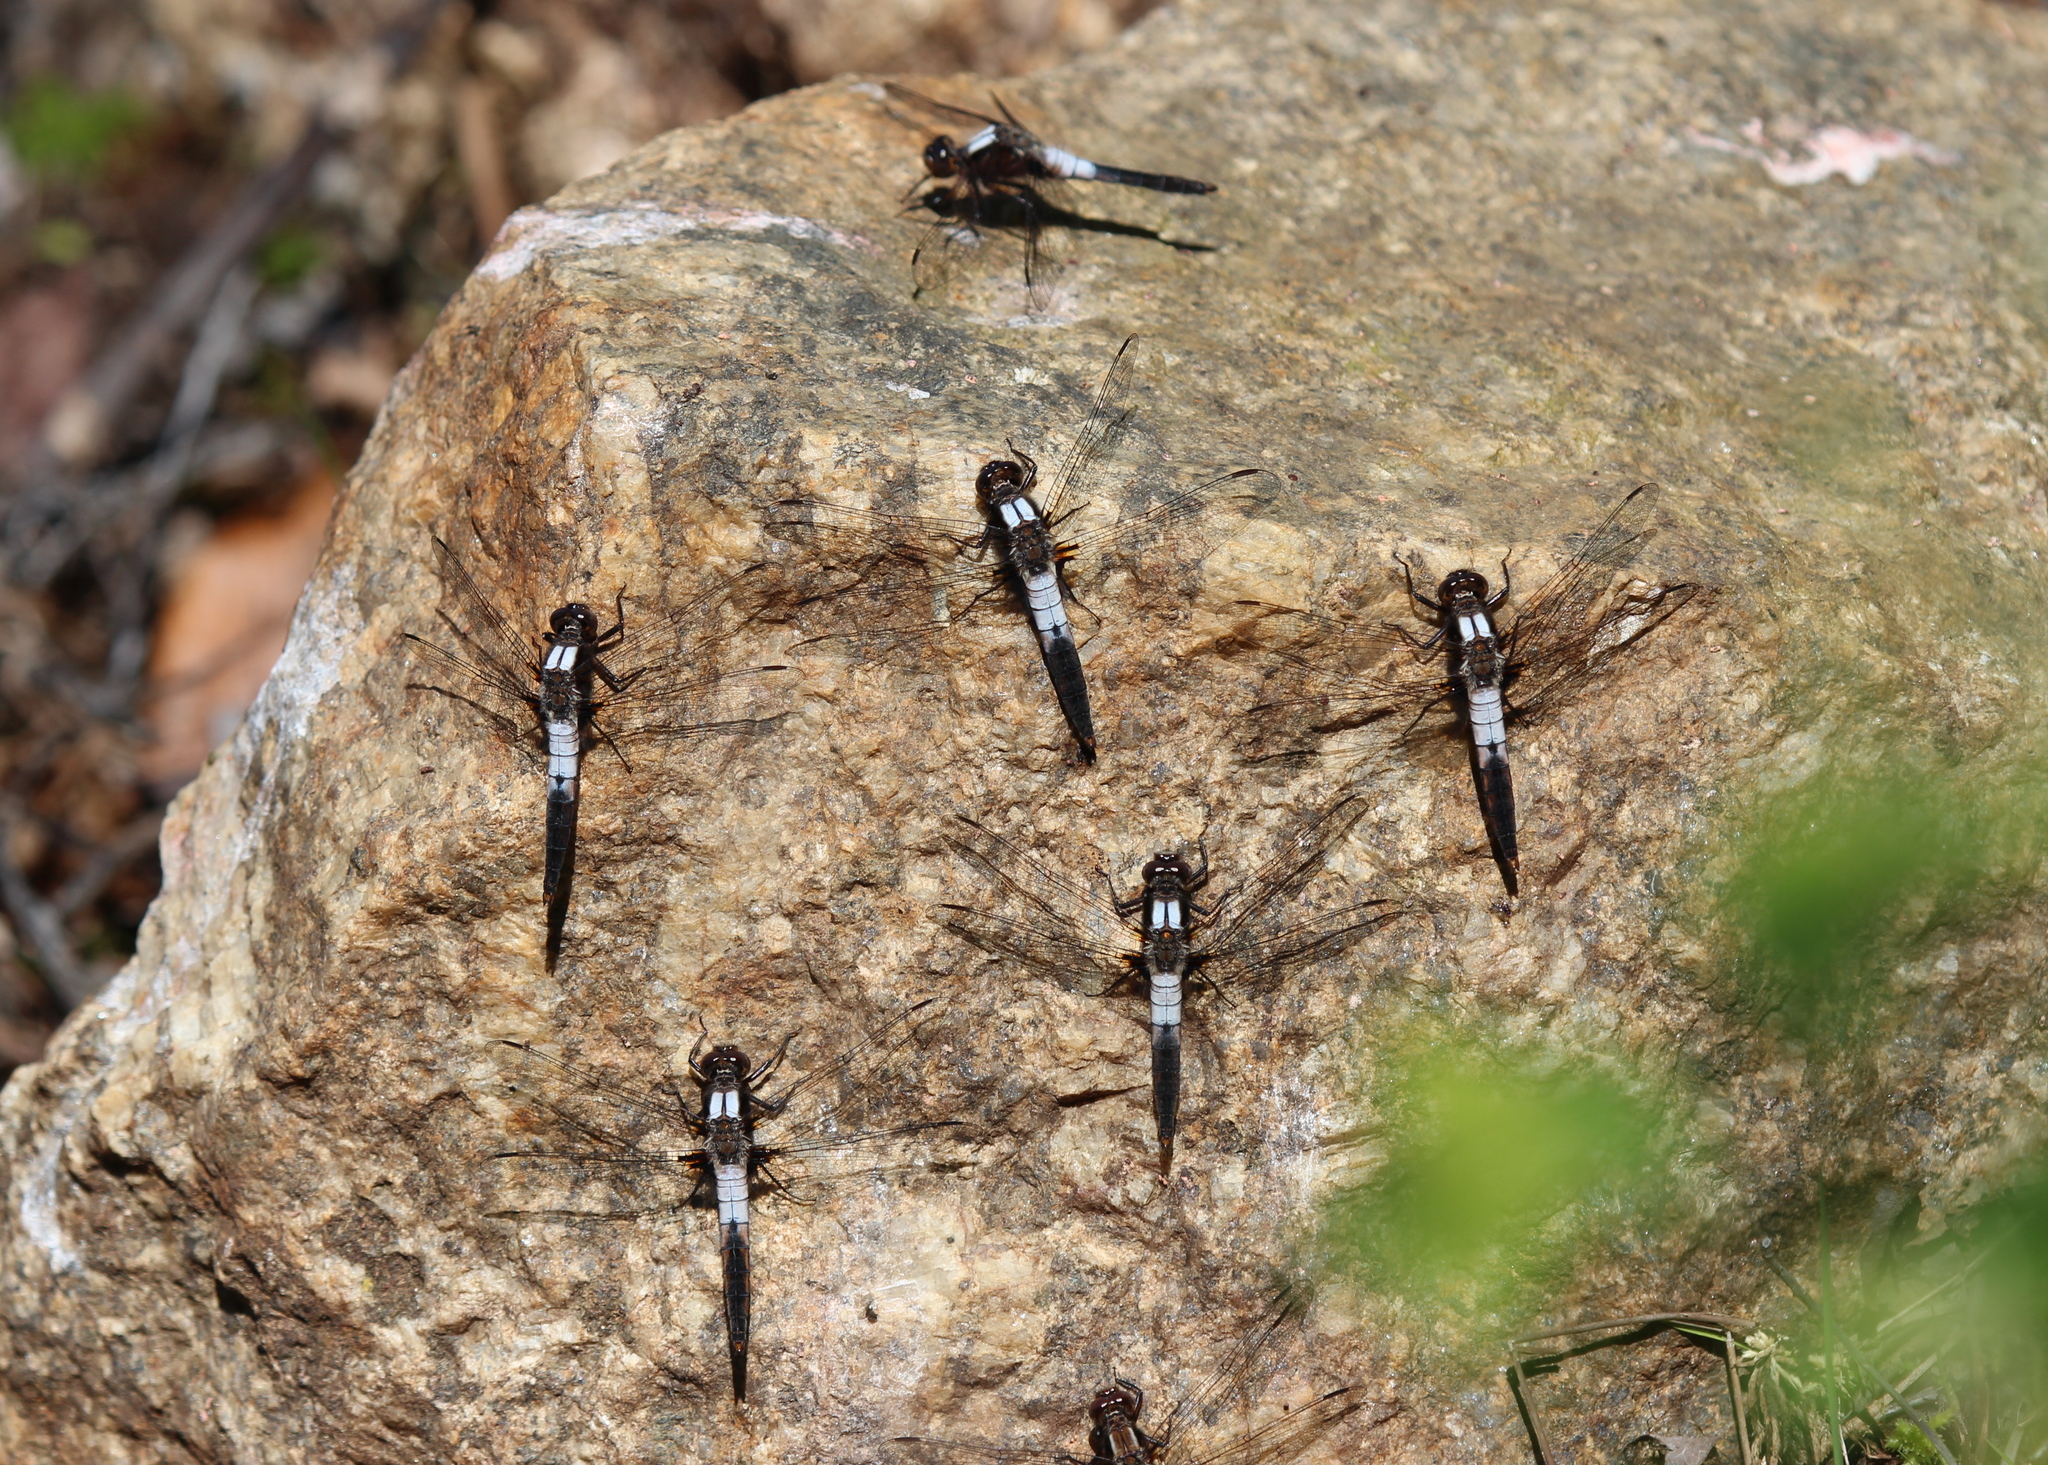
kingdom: Animalia
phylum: Arthropoda
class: Insecta
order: Odonata
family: Libellulidae
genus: Ladona
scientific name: Ladona julia
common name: Chalk-fronted corporal
